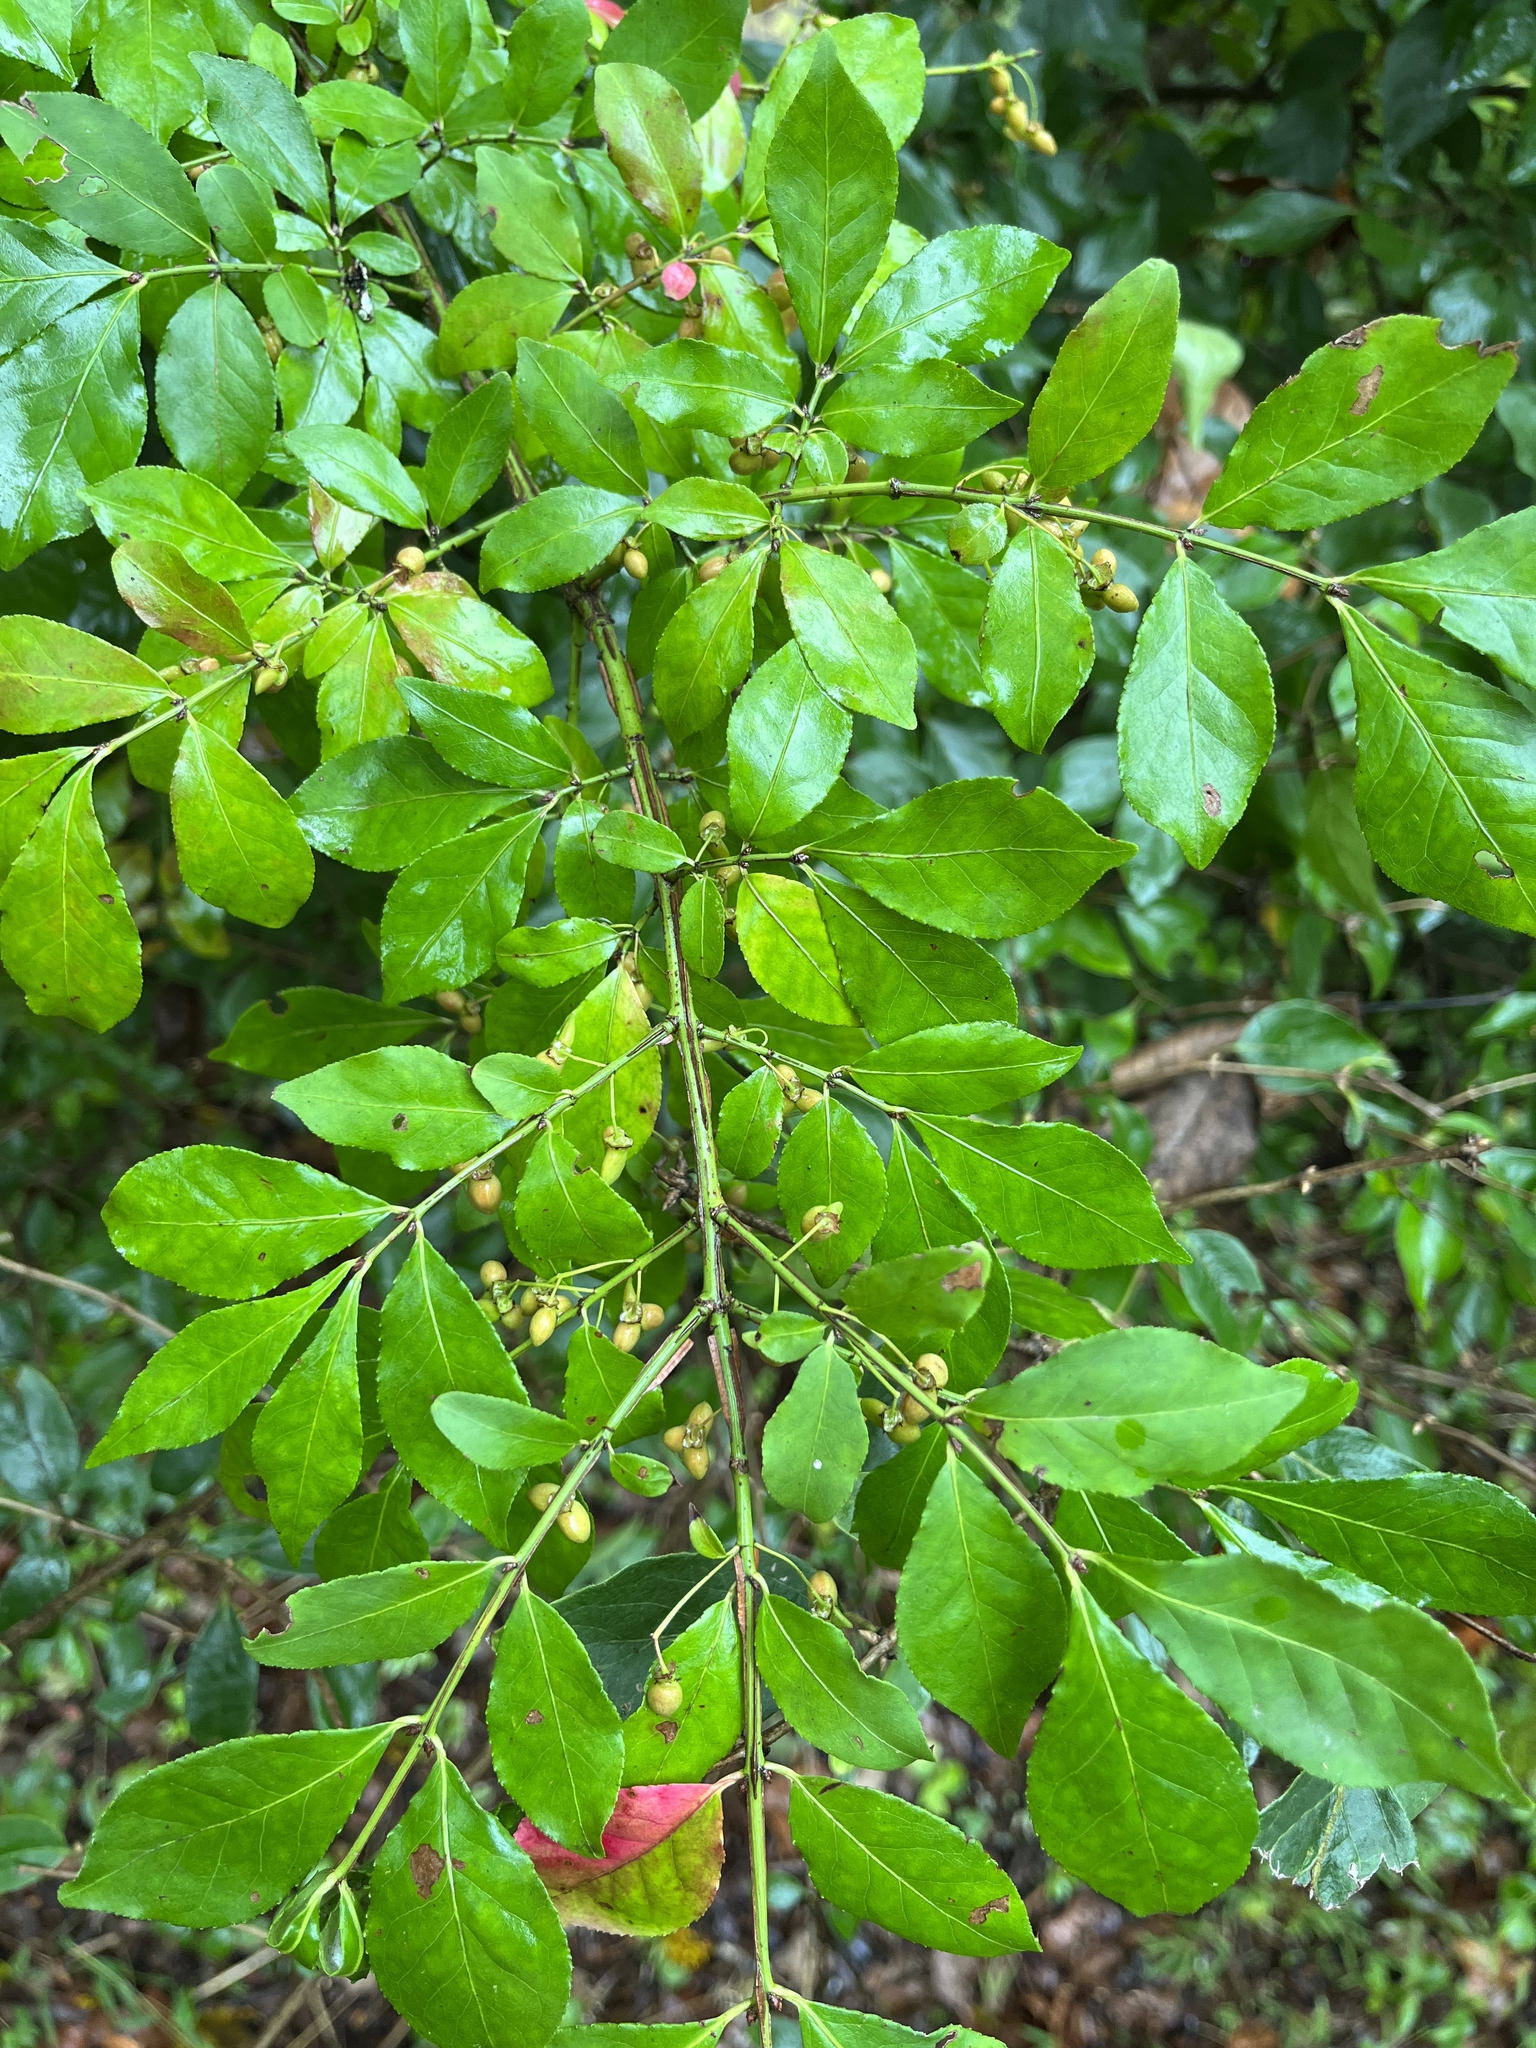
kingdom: Plantae
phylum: Tracheophyta
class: Magnoliopsida
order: Celastrales
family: Celastraceae
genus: Euonymus
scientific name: Euonymus alatus
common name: Winged euonymus
